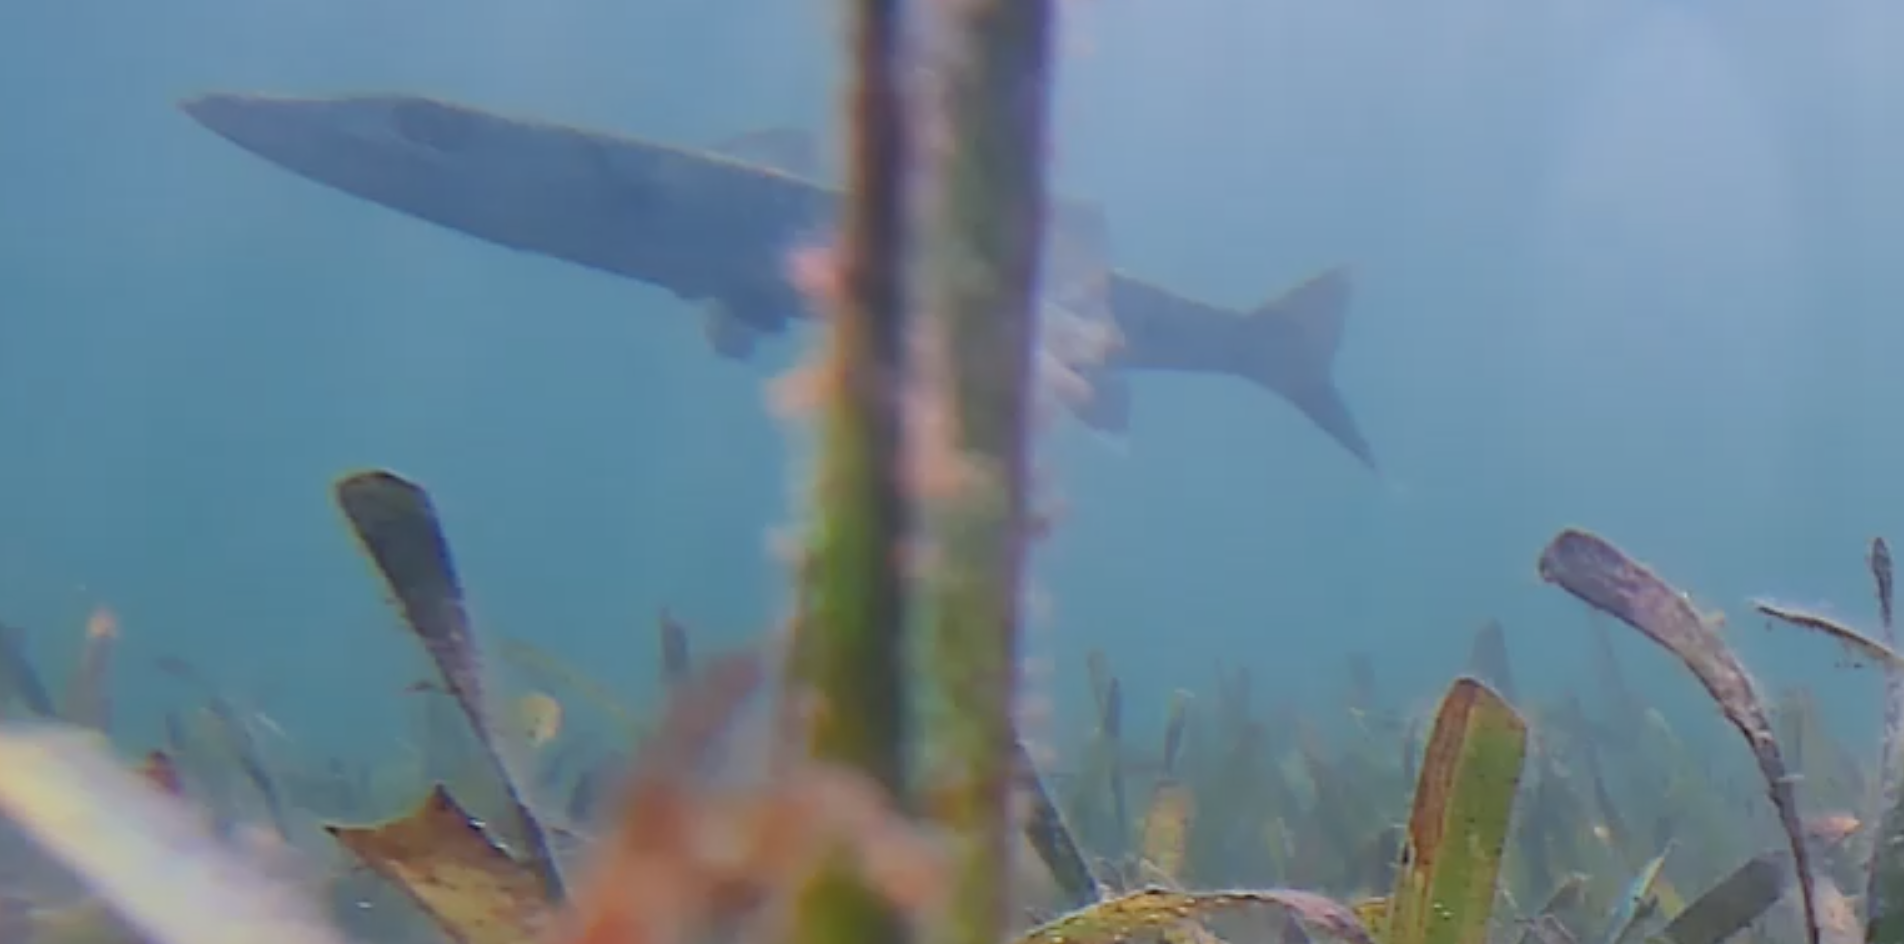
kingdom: Animalia
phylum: Chordata
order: Perciformes
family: Sphyraenidae
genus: Sphyraena
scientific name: Sphyraena barracuda
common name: Great barracuda
